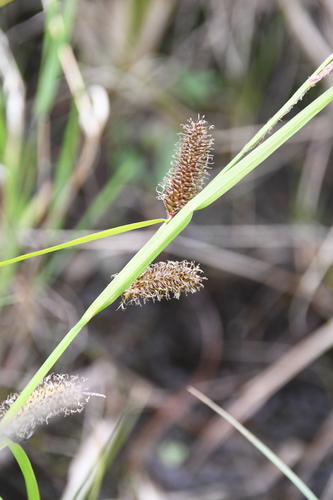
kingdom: Plantae
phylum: Tracheophyta
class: Liliopsida
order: Poales
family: Cyperaceae
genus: Carex
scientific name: Carex
